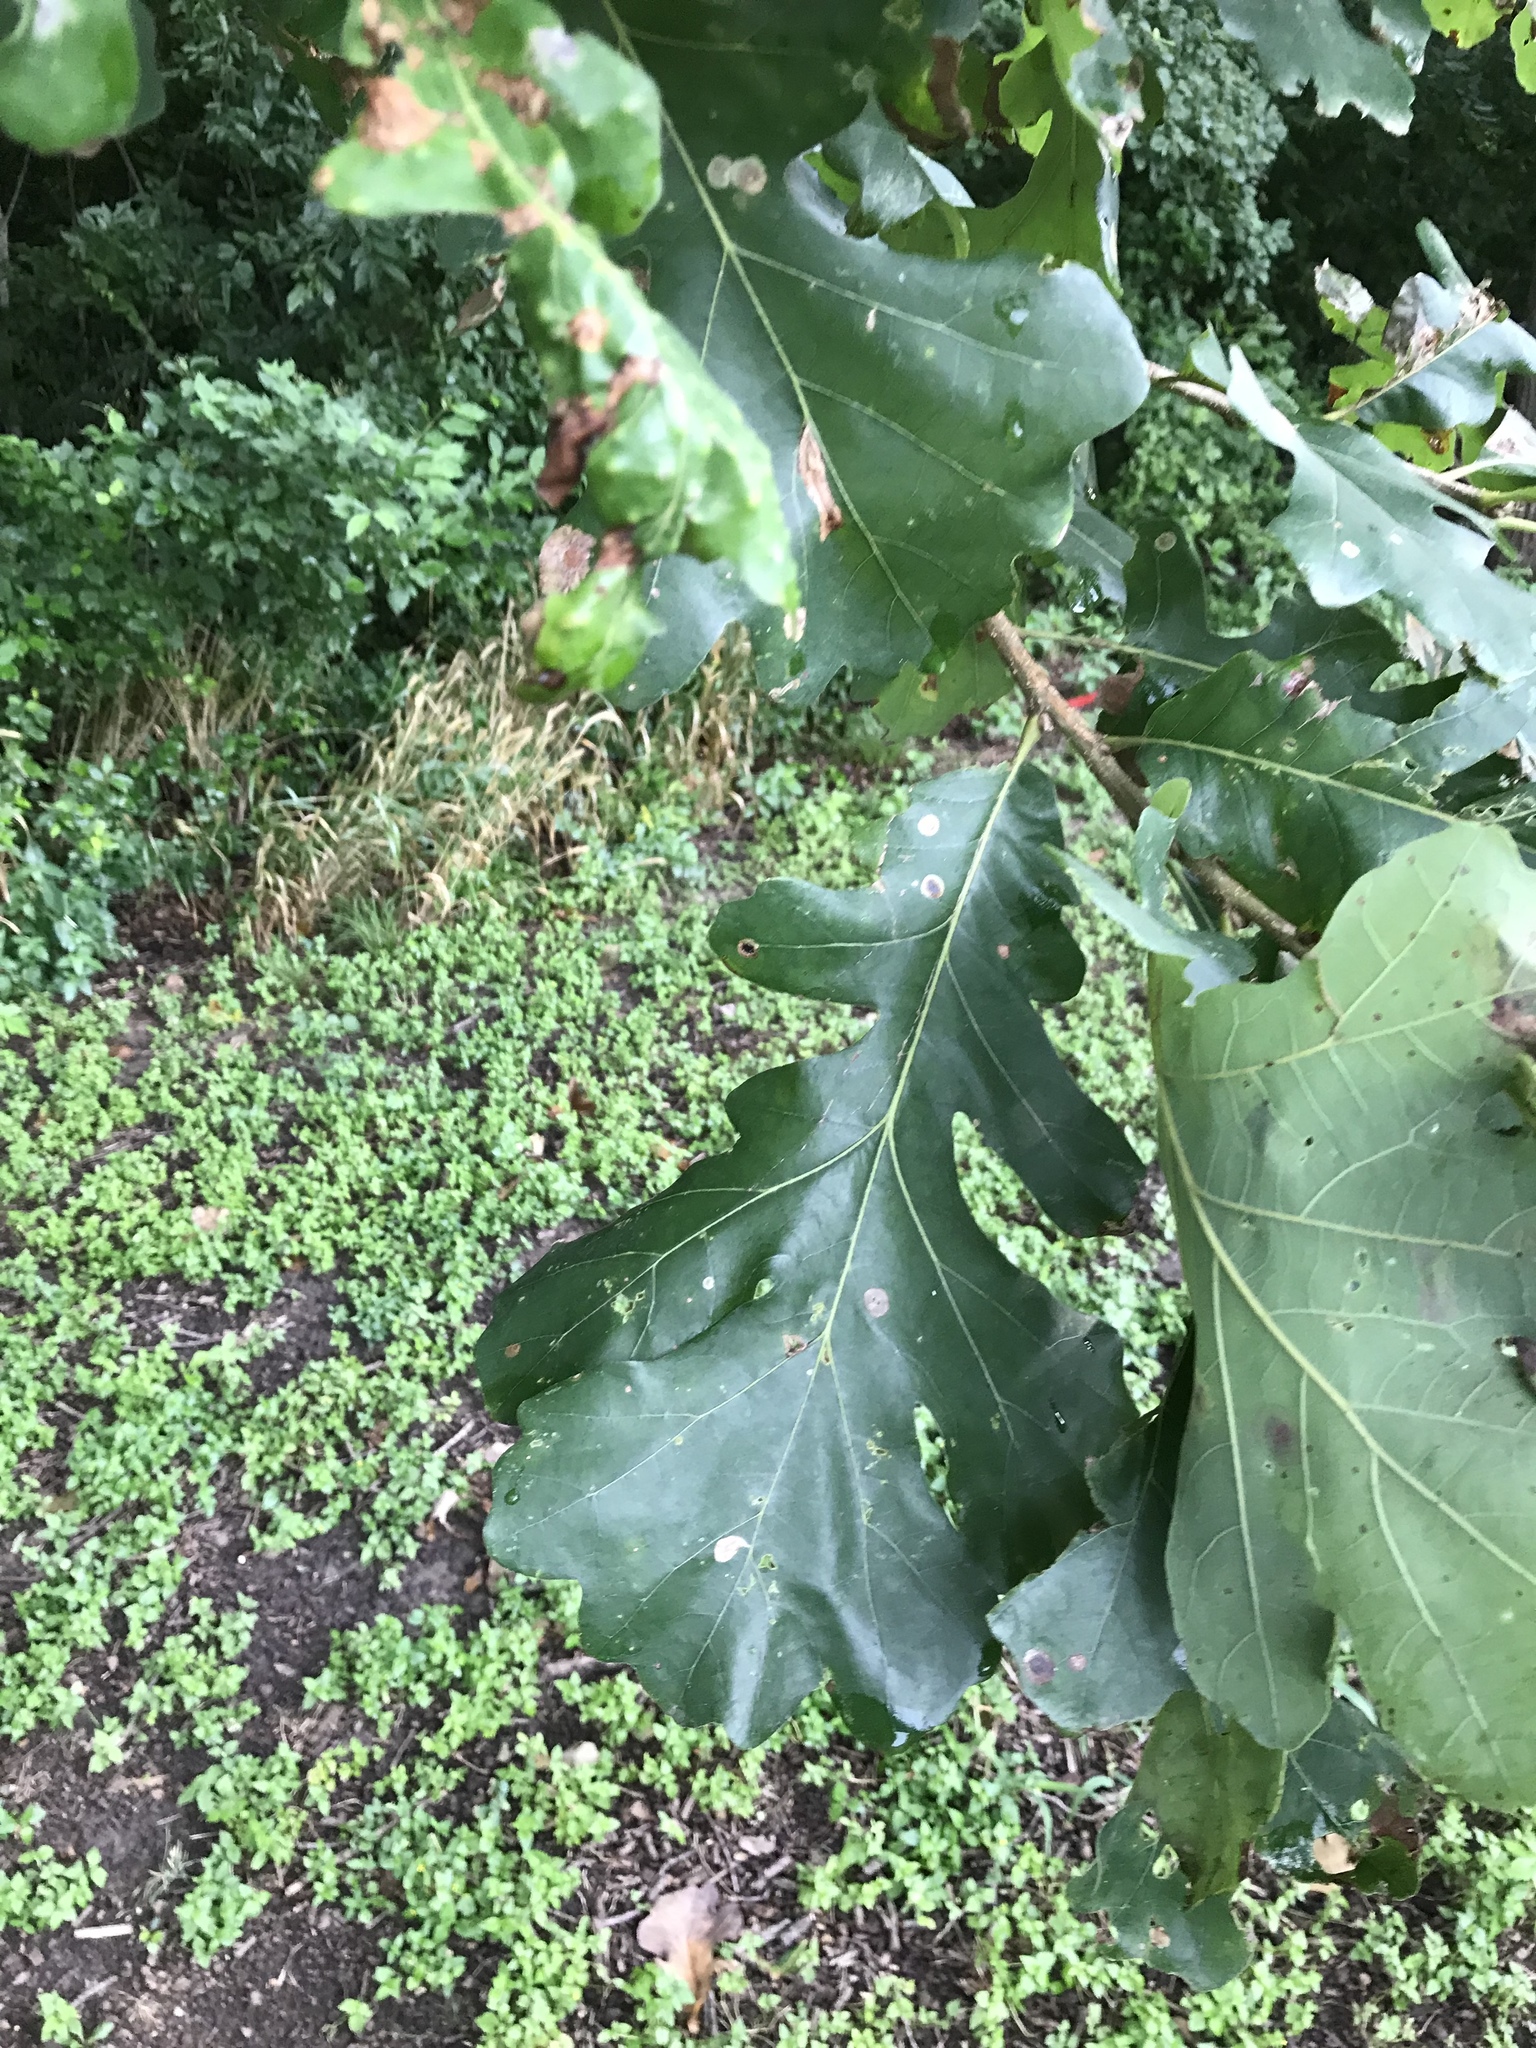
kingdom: Plantae
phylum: Tracheophyta
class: Magnoliopsida
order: Fagales
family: Fagaceae
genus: Quercus
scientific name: Quercus macrocarpa
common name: Bur oak
